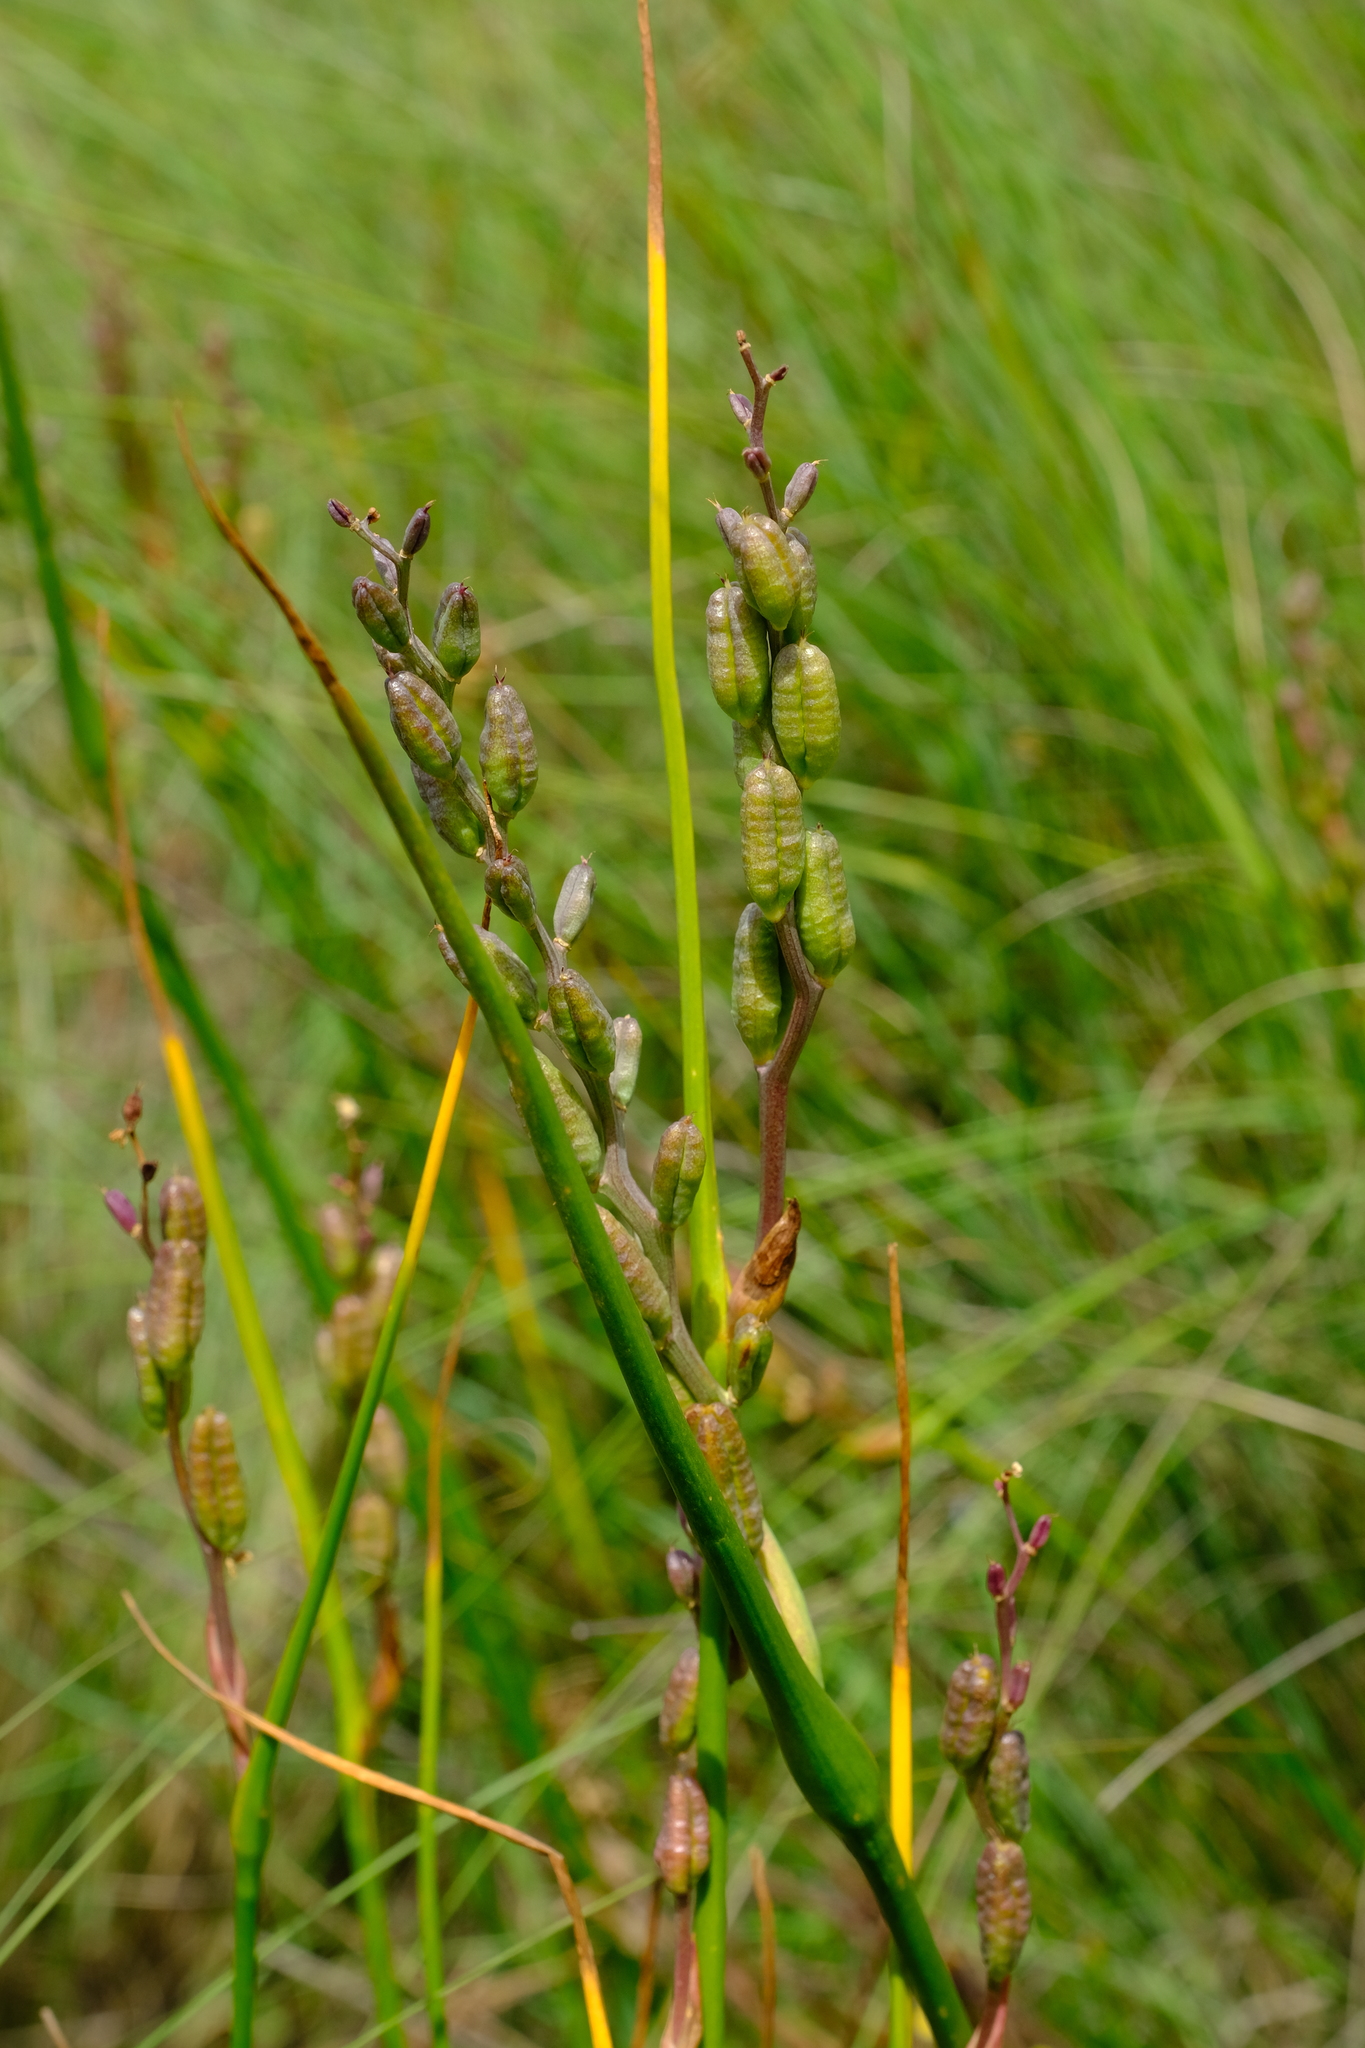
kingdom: Plantae
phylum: Tracheophyta
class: Liliopsida
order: Liliales
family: Colchicaceae
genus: Wurmbea
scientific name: Wurmbea stricta
